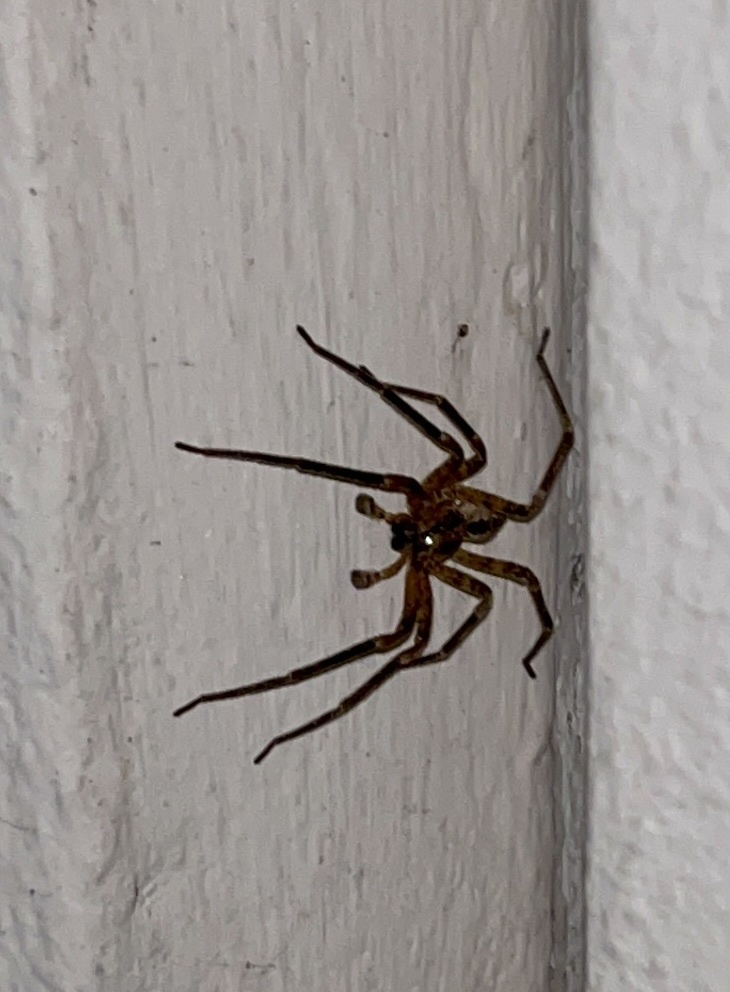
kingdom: Animalia
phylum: Arthropoda
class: Arachnida
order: Araneae
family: Zoropsidae
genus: Zoropsis
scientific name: Zoropsis spinimana
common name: Zoropsid spider
